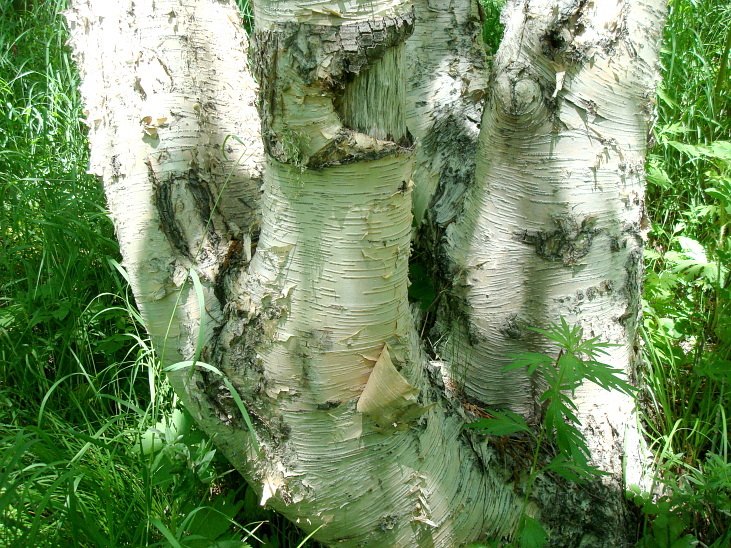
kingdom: Plantae
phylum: Tracheophyta
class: Magnoliopsida
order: Fagales
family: Betulaceae
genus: Betula
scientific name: Betula ermanii
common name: Erman's birch
